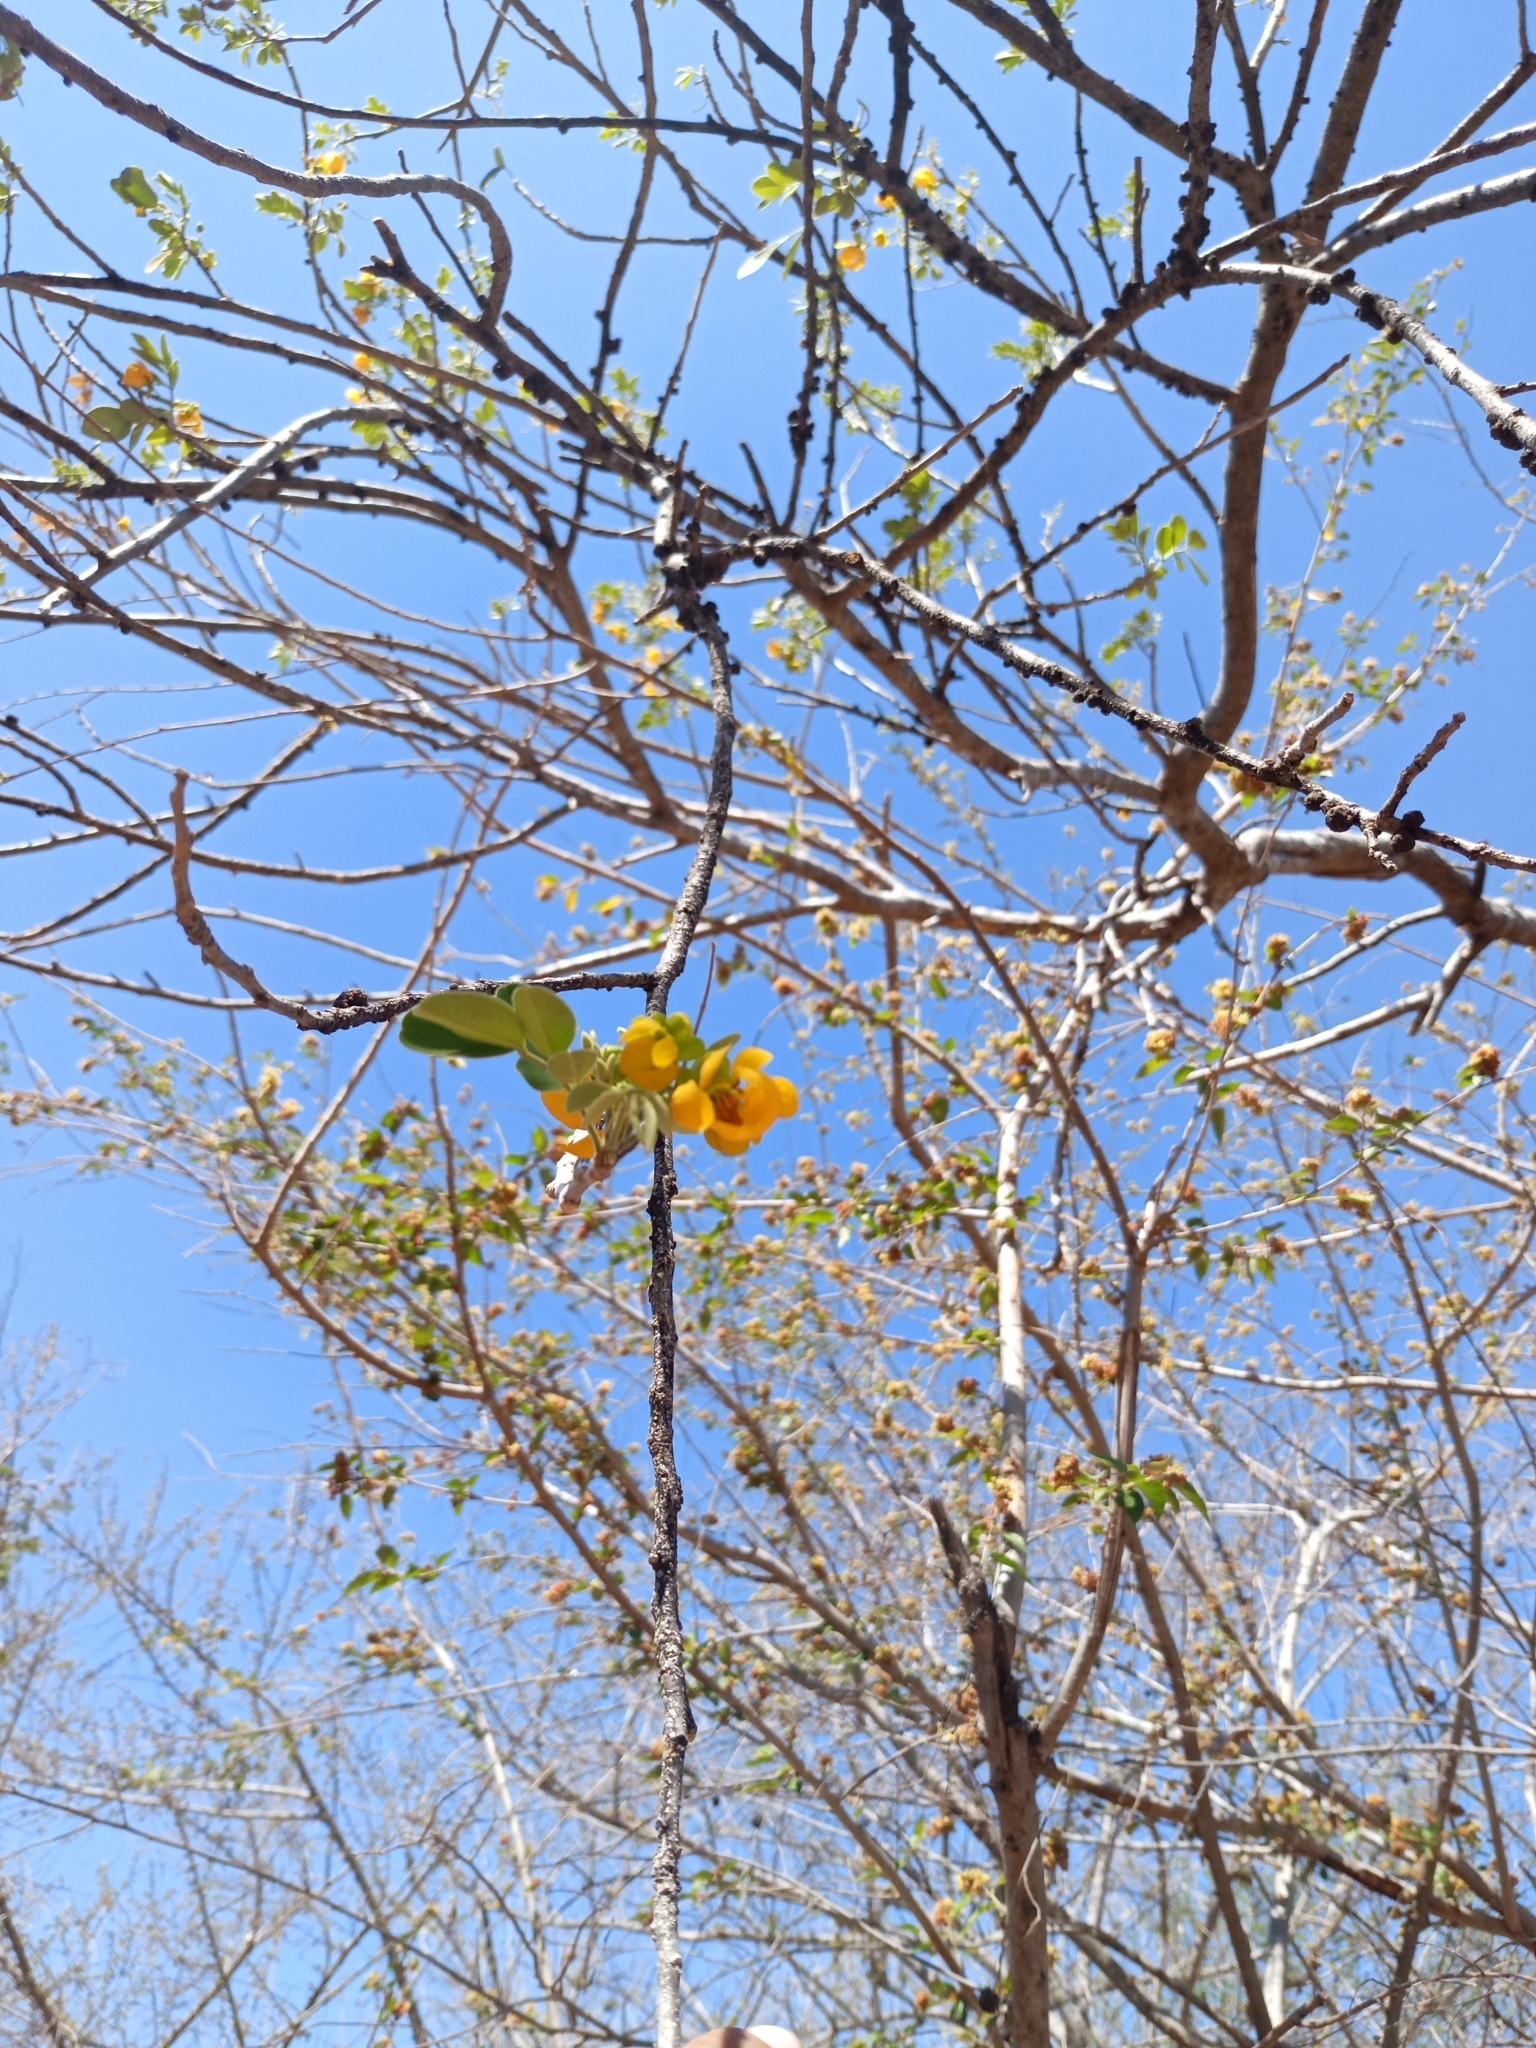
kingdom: Plantae
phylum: Tracheophyta
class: Magnoliopsida
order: Fabales
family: Fabaceae
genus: Senna
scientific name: Senna atomaria
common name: Flor de san jose
